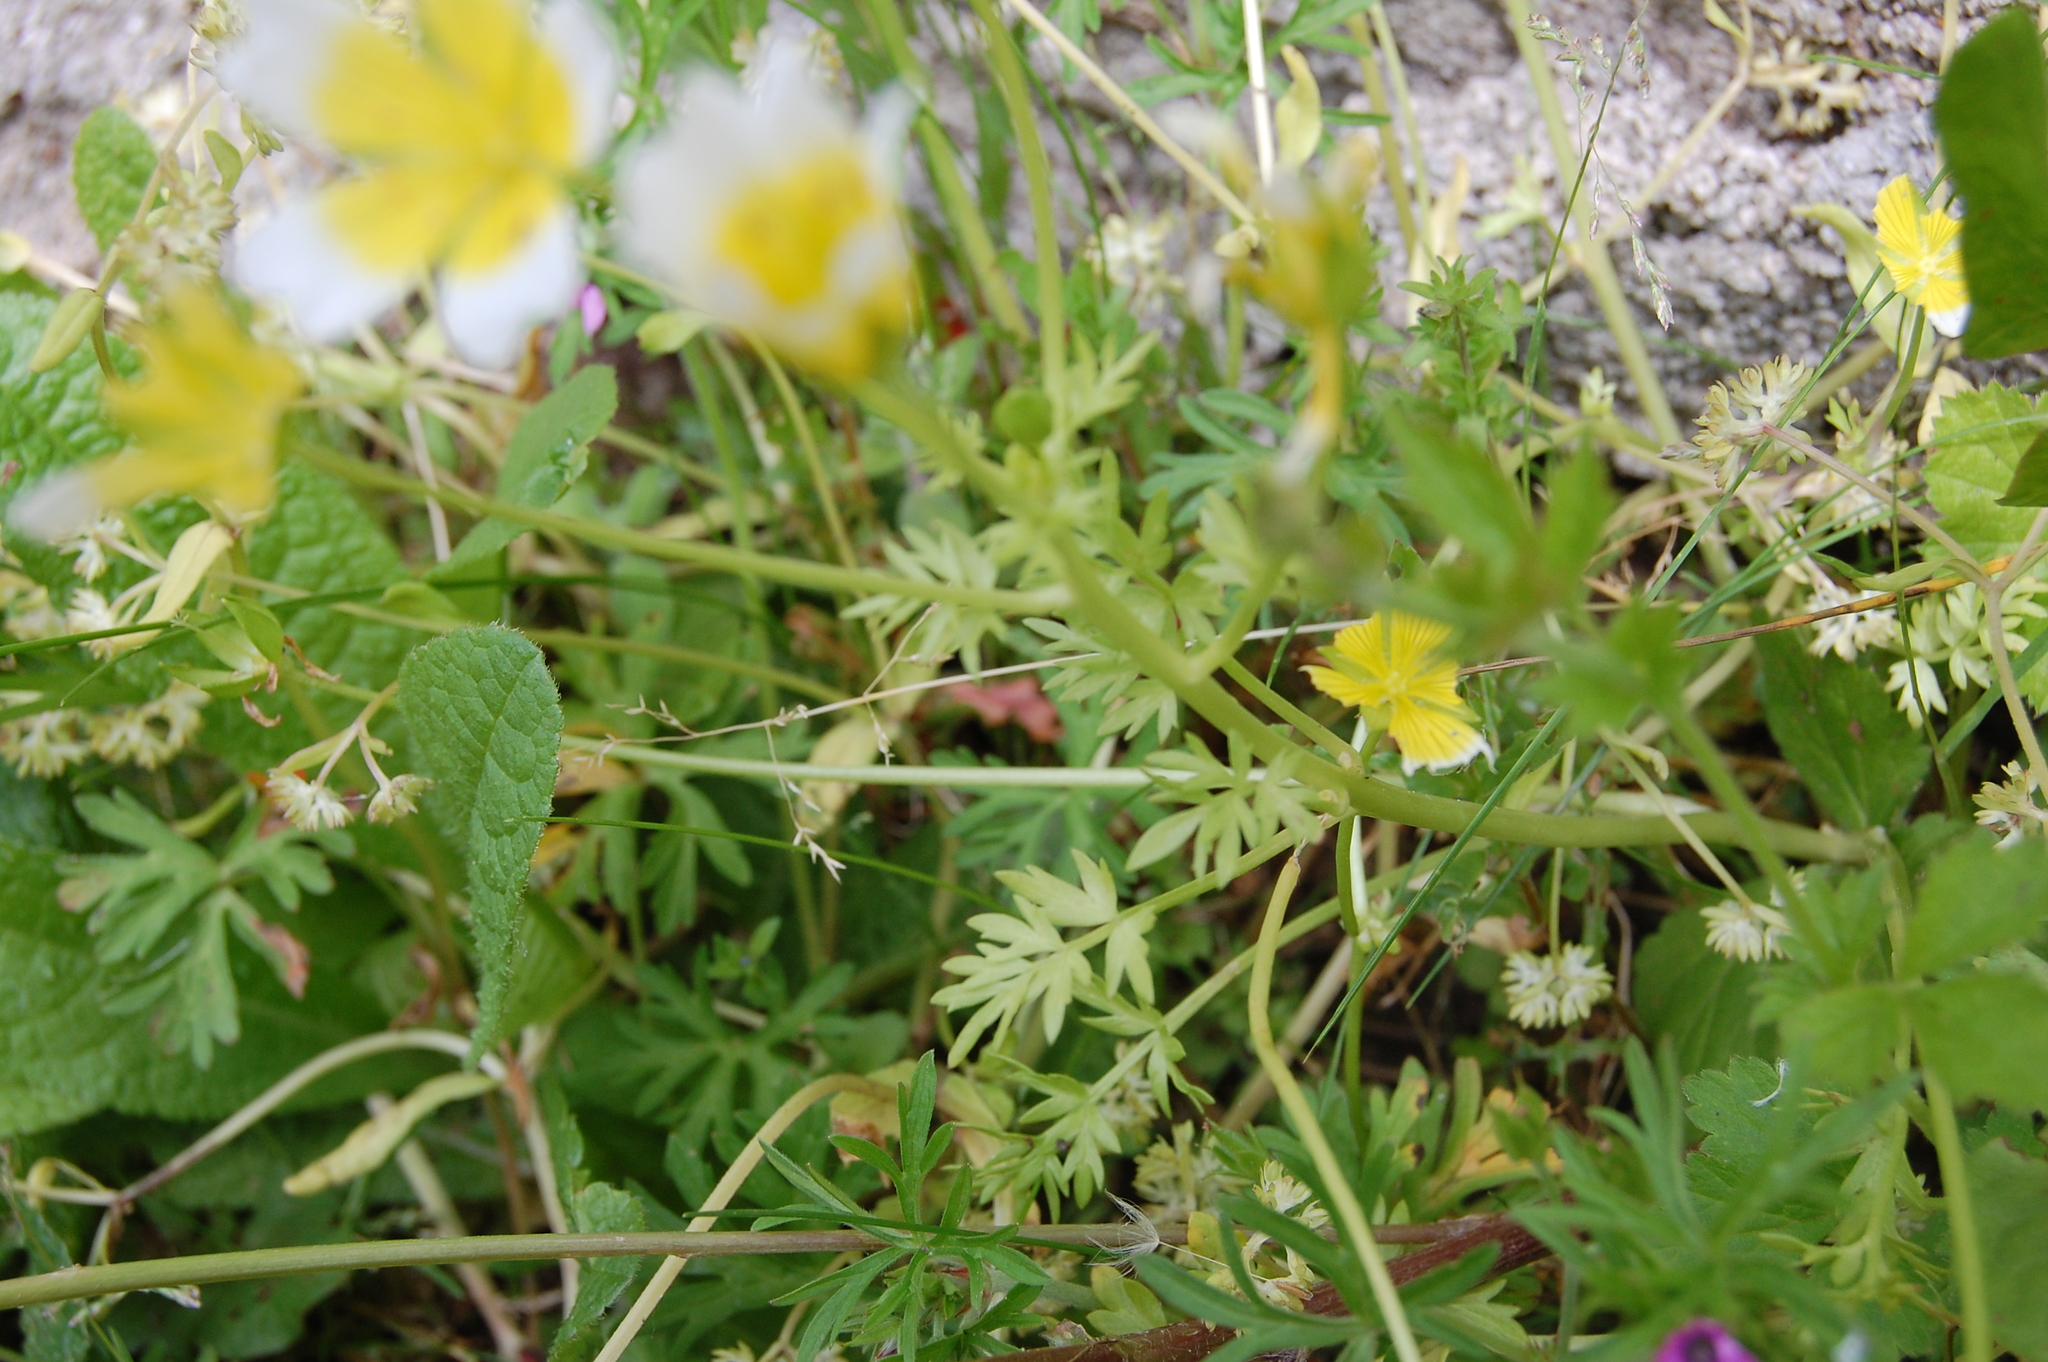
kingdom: Plantae
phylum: Tracheophyta
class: Magnoliopsida
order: Brassicales
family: Limnanthaceae
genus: Limnanthes
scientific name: Limnanthes douglasii
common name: Meadow-foam
